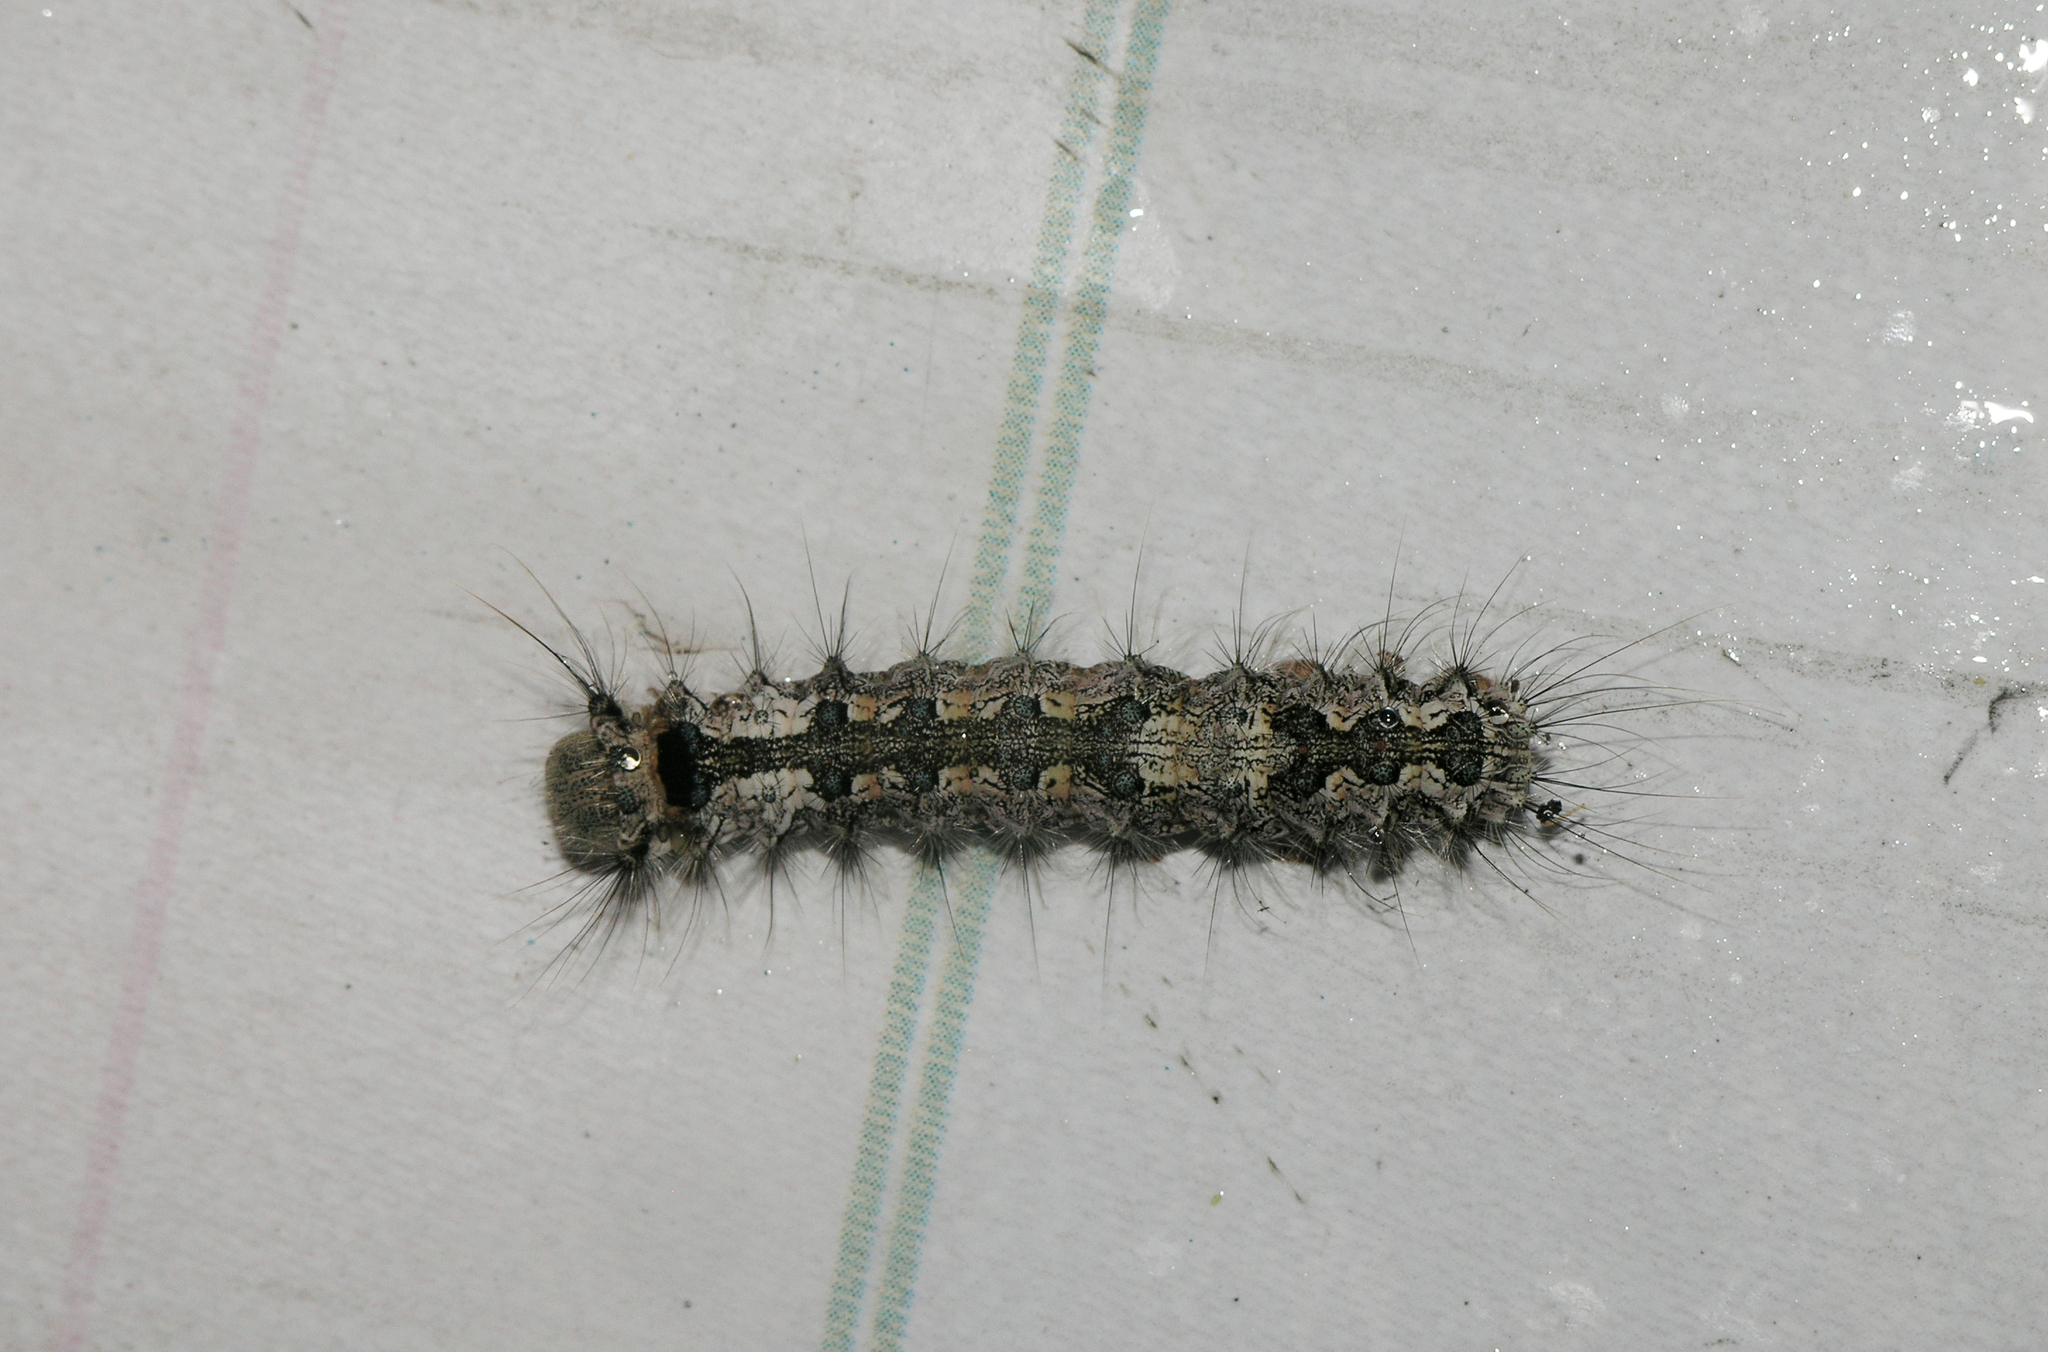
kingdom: Animalia
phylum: Arthropoda
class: Insecta
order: Lepidoptera
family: Erebidae
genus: Lymantria
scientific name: Lymantria monacha
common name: Black arches
